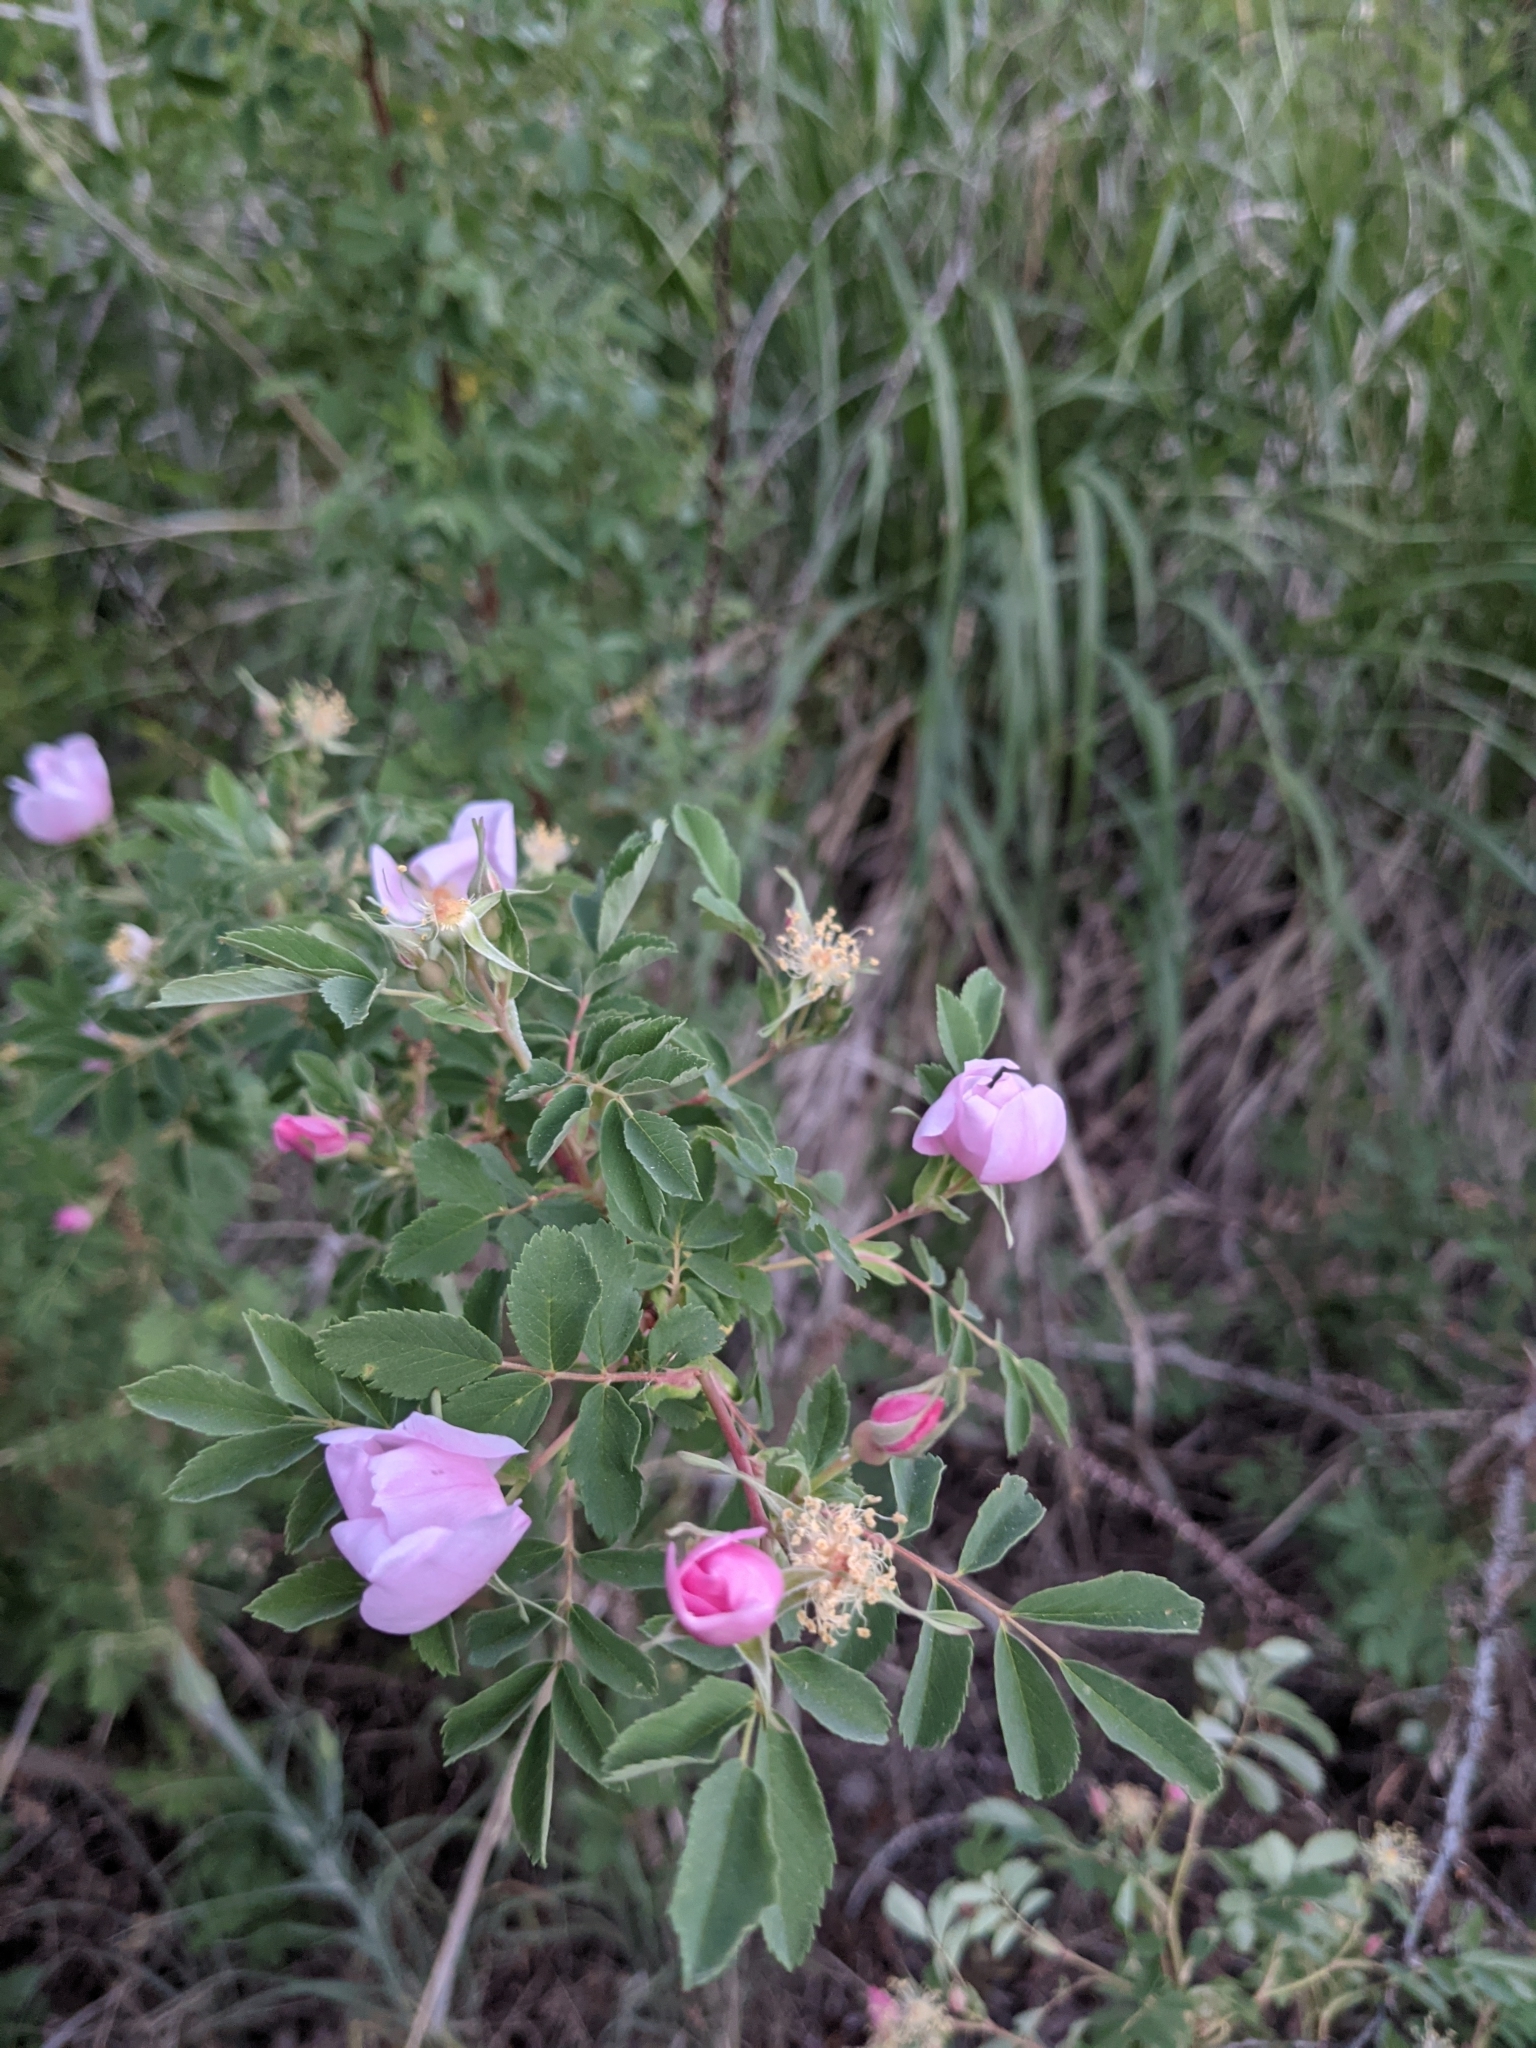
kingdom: Plantae
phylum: Tracheophyta
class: Magnoliopsida
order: Rosales
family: Rosaceae
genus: Rosa
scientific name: Rosa woodsii
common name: Woods's rose
